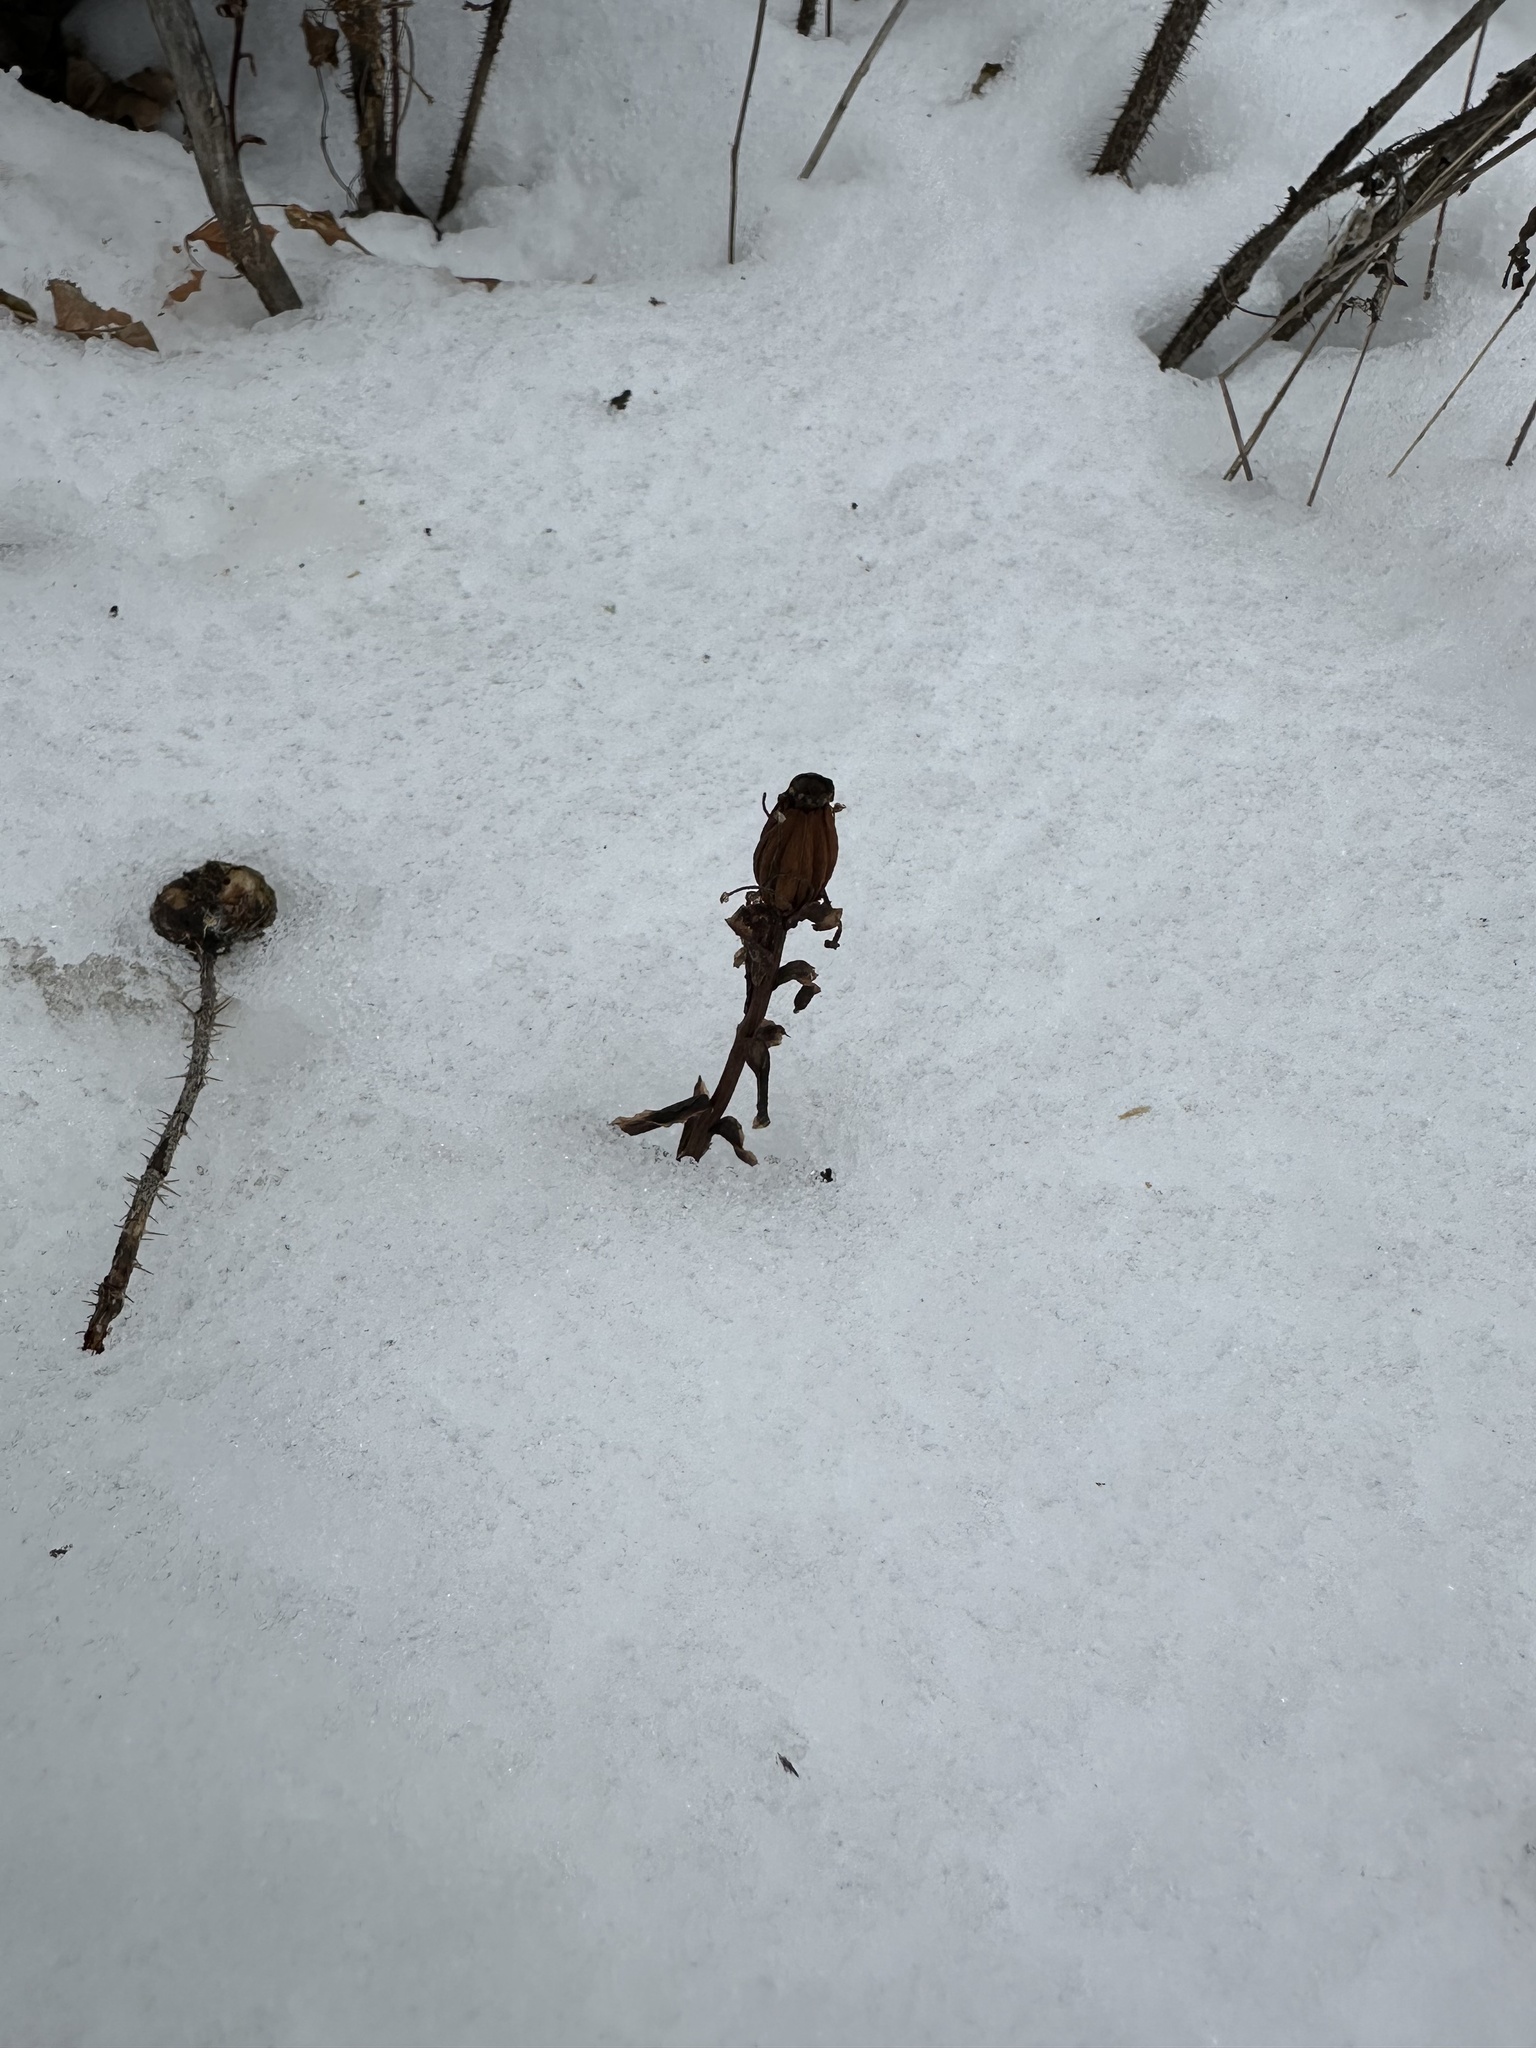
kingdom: Plantae
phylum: Tracheophyta
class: Magnoliopsida
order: Ericales
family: Ericaceae
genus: Monotropa
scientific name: Monotropa uniflora
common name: Convulsion root
